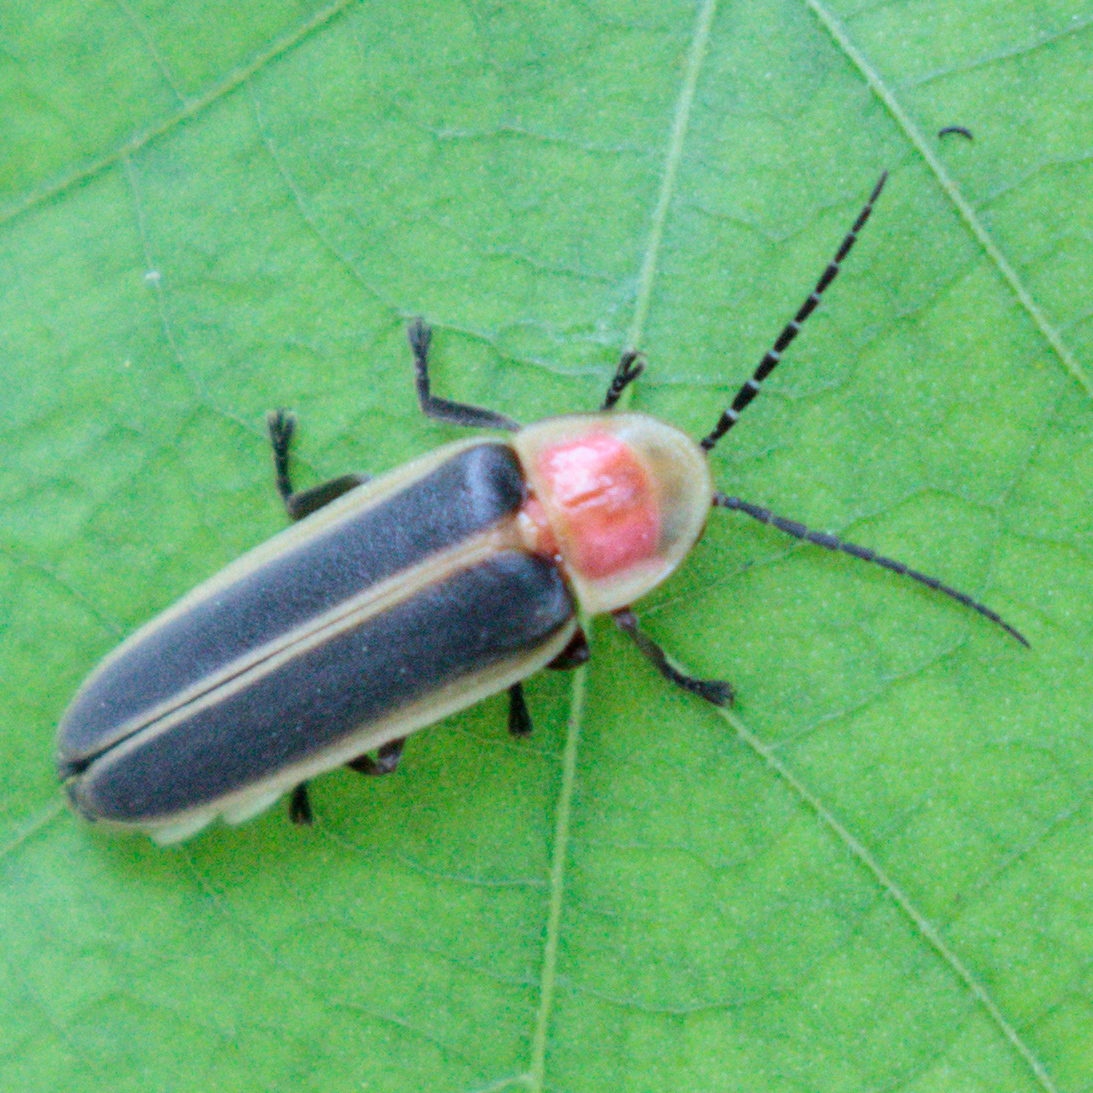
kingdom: Animalia
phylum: Arthropoda
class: Insecta
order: Coleoptera
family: Lampyridae
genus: Photinus
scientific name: Photinus pyralis
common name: Big dipper firefly
